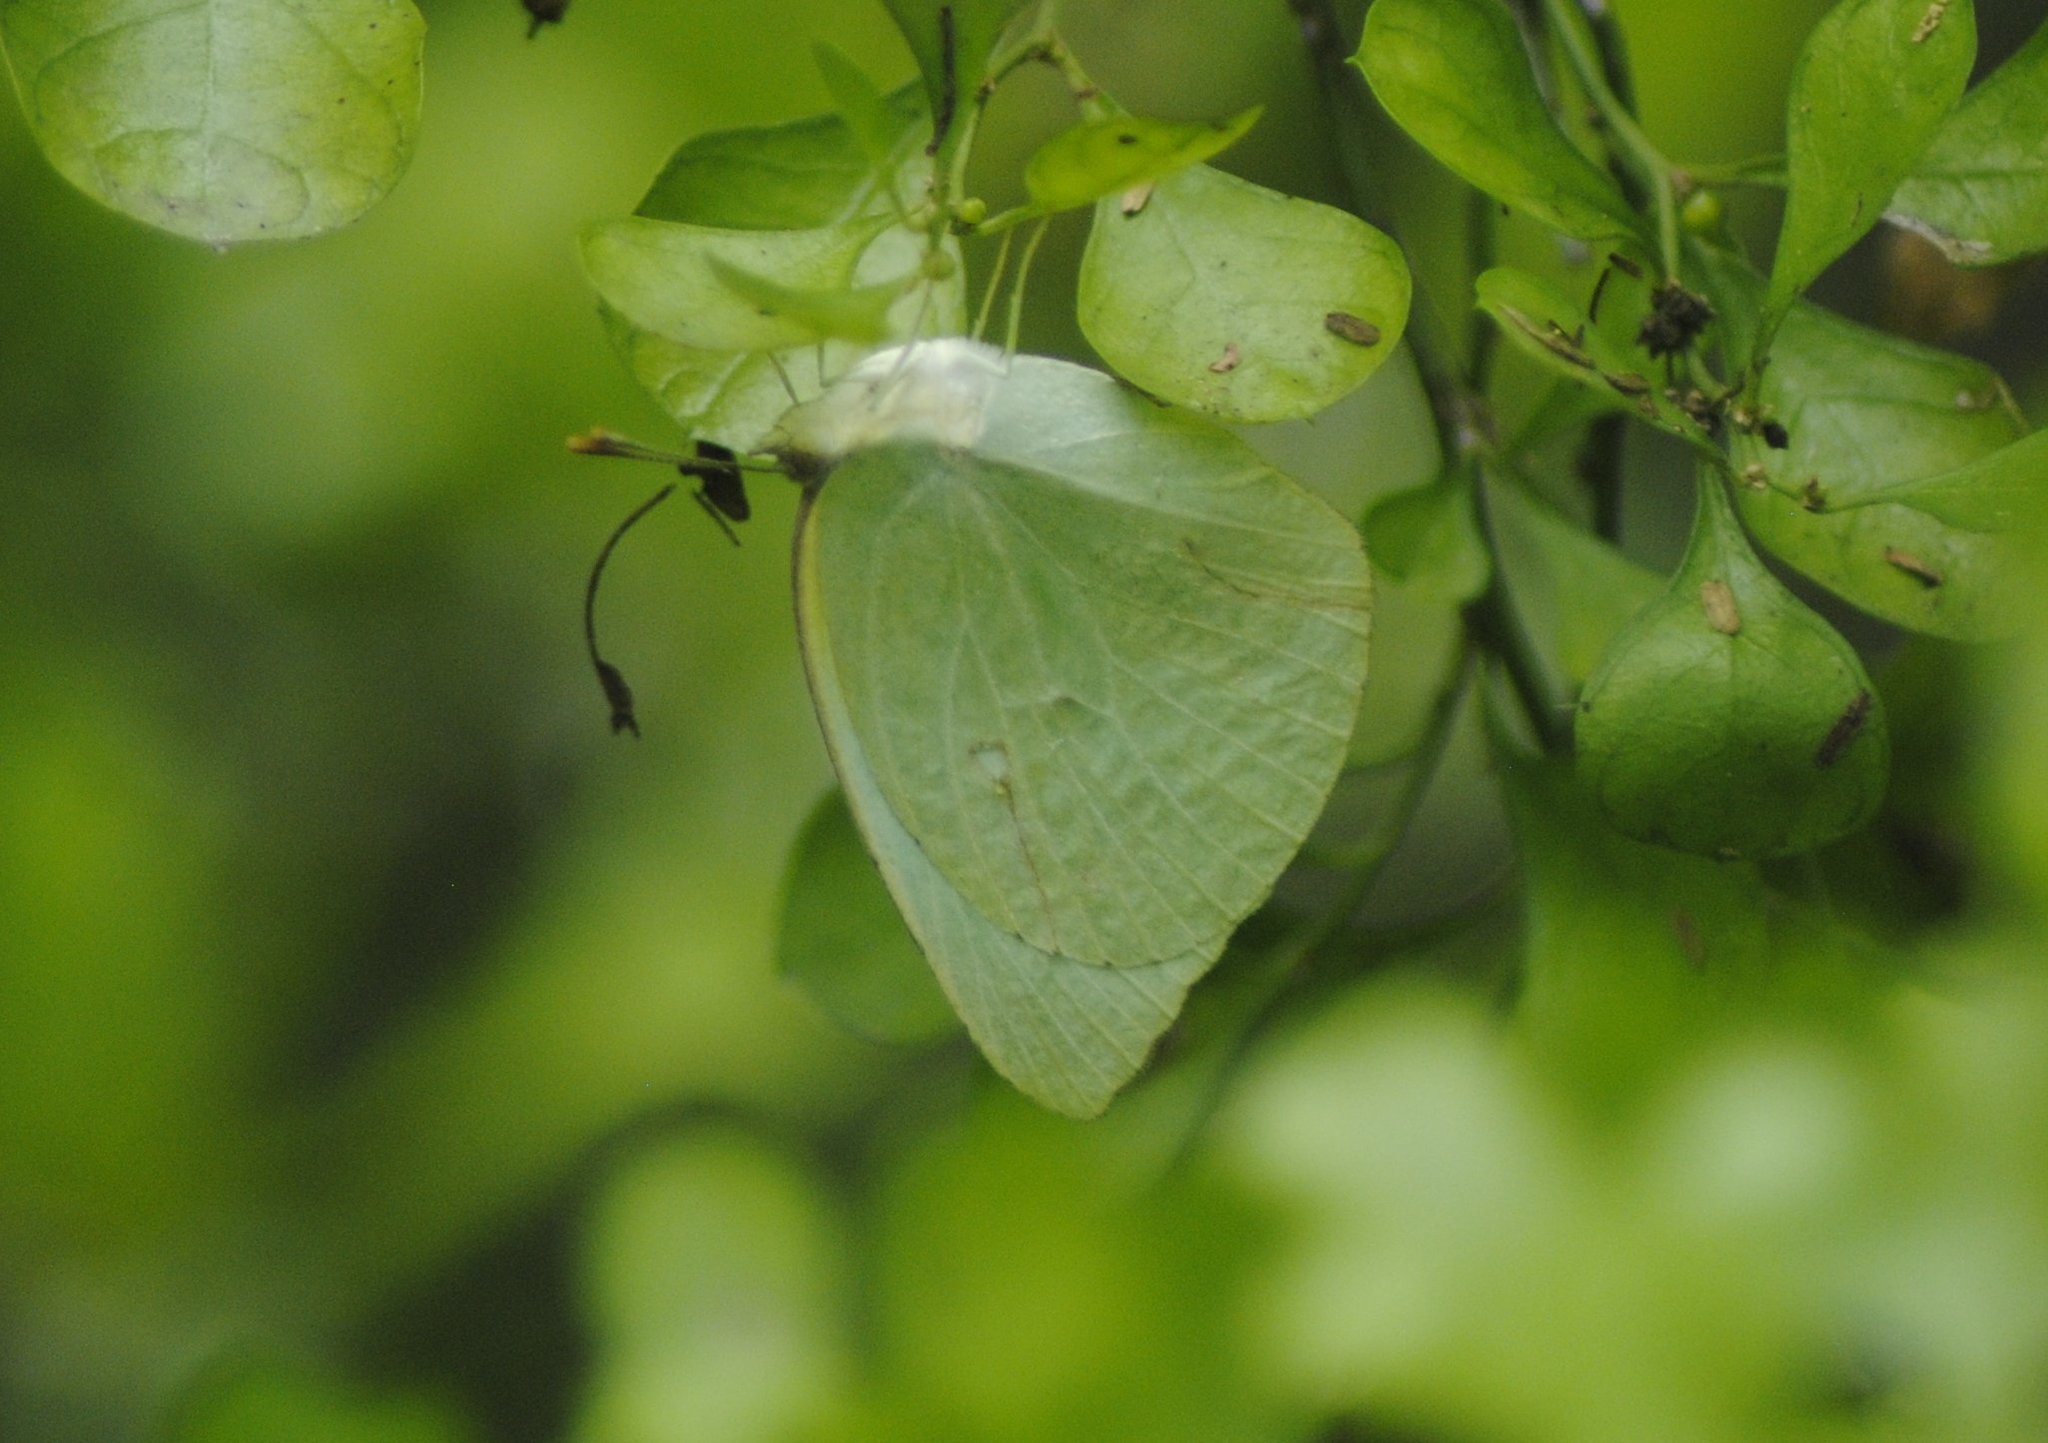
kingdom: Animalia
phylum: Arthropoda
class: Insecta
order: Lepidoptera
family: Pieridae
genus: Kricogonia
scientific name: Kricogonia lyside
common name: Guayacan sulphur,
